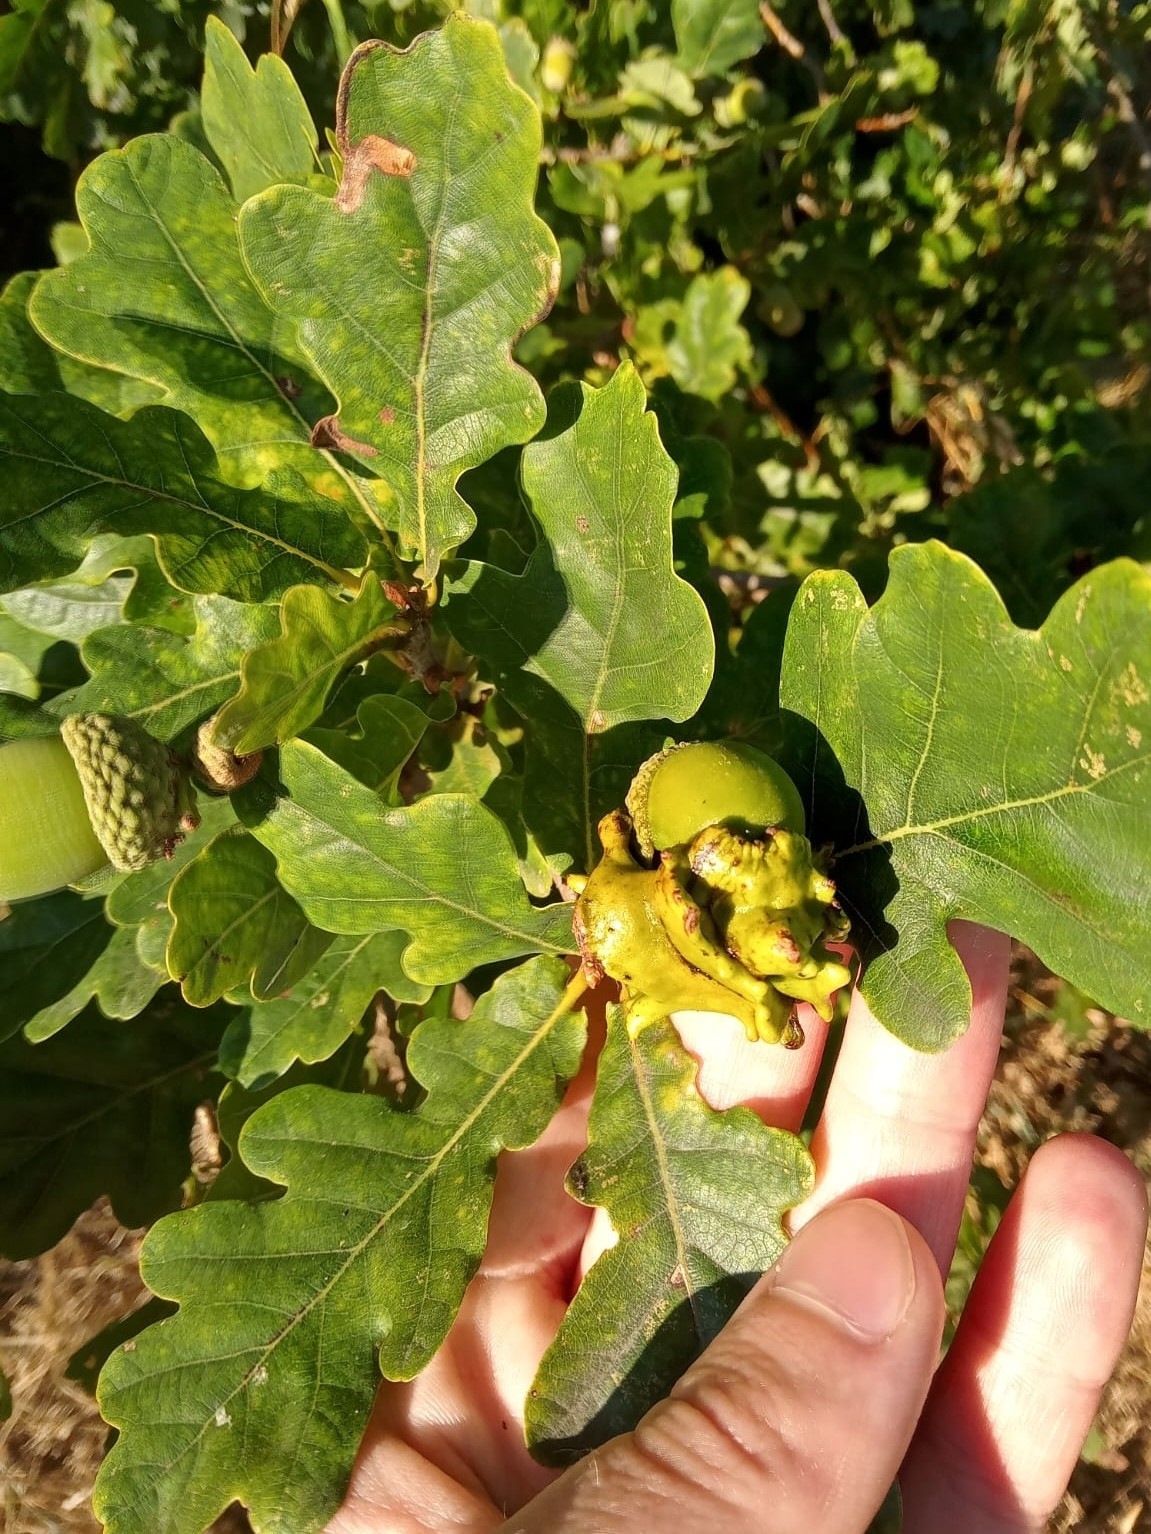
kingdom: Animalia
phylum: Arthropoda
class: Insecta
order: Hymenoptera
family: Cynipidae
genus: Andricus
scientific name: Andricus quercuscalicis
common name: Knopper gall
